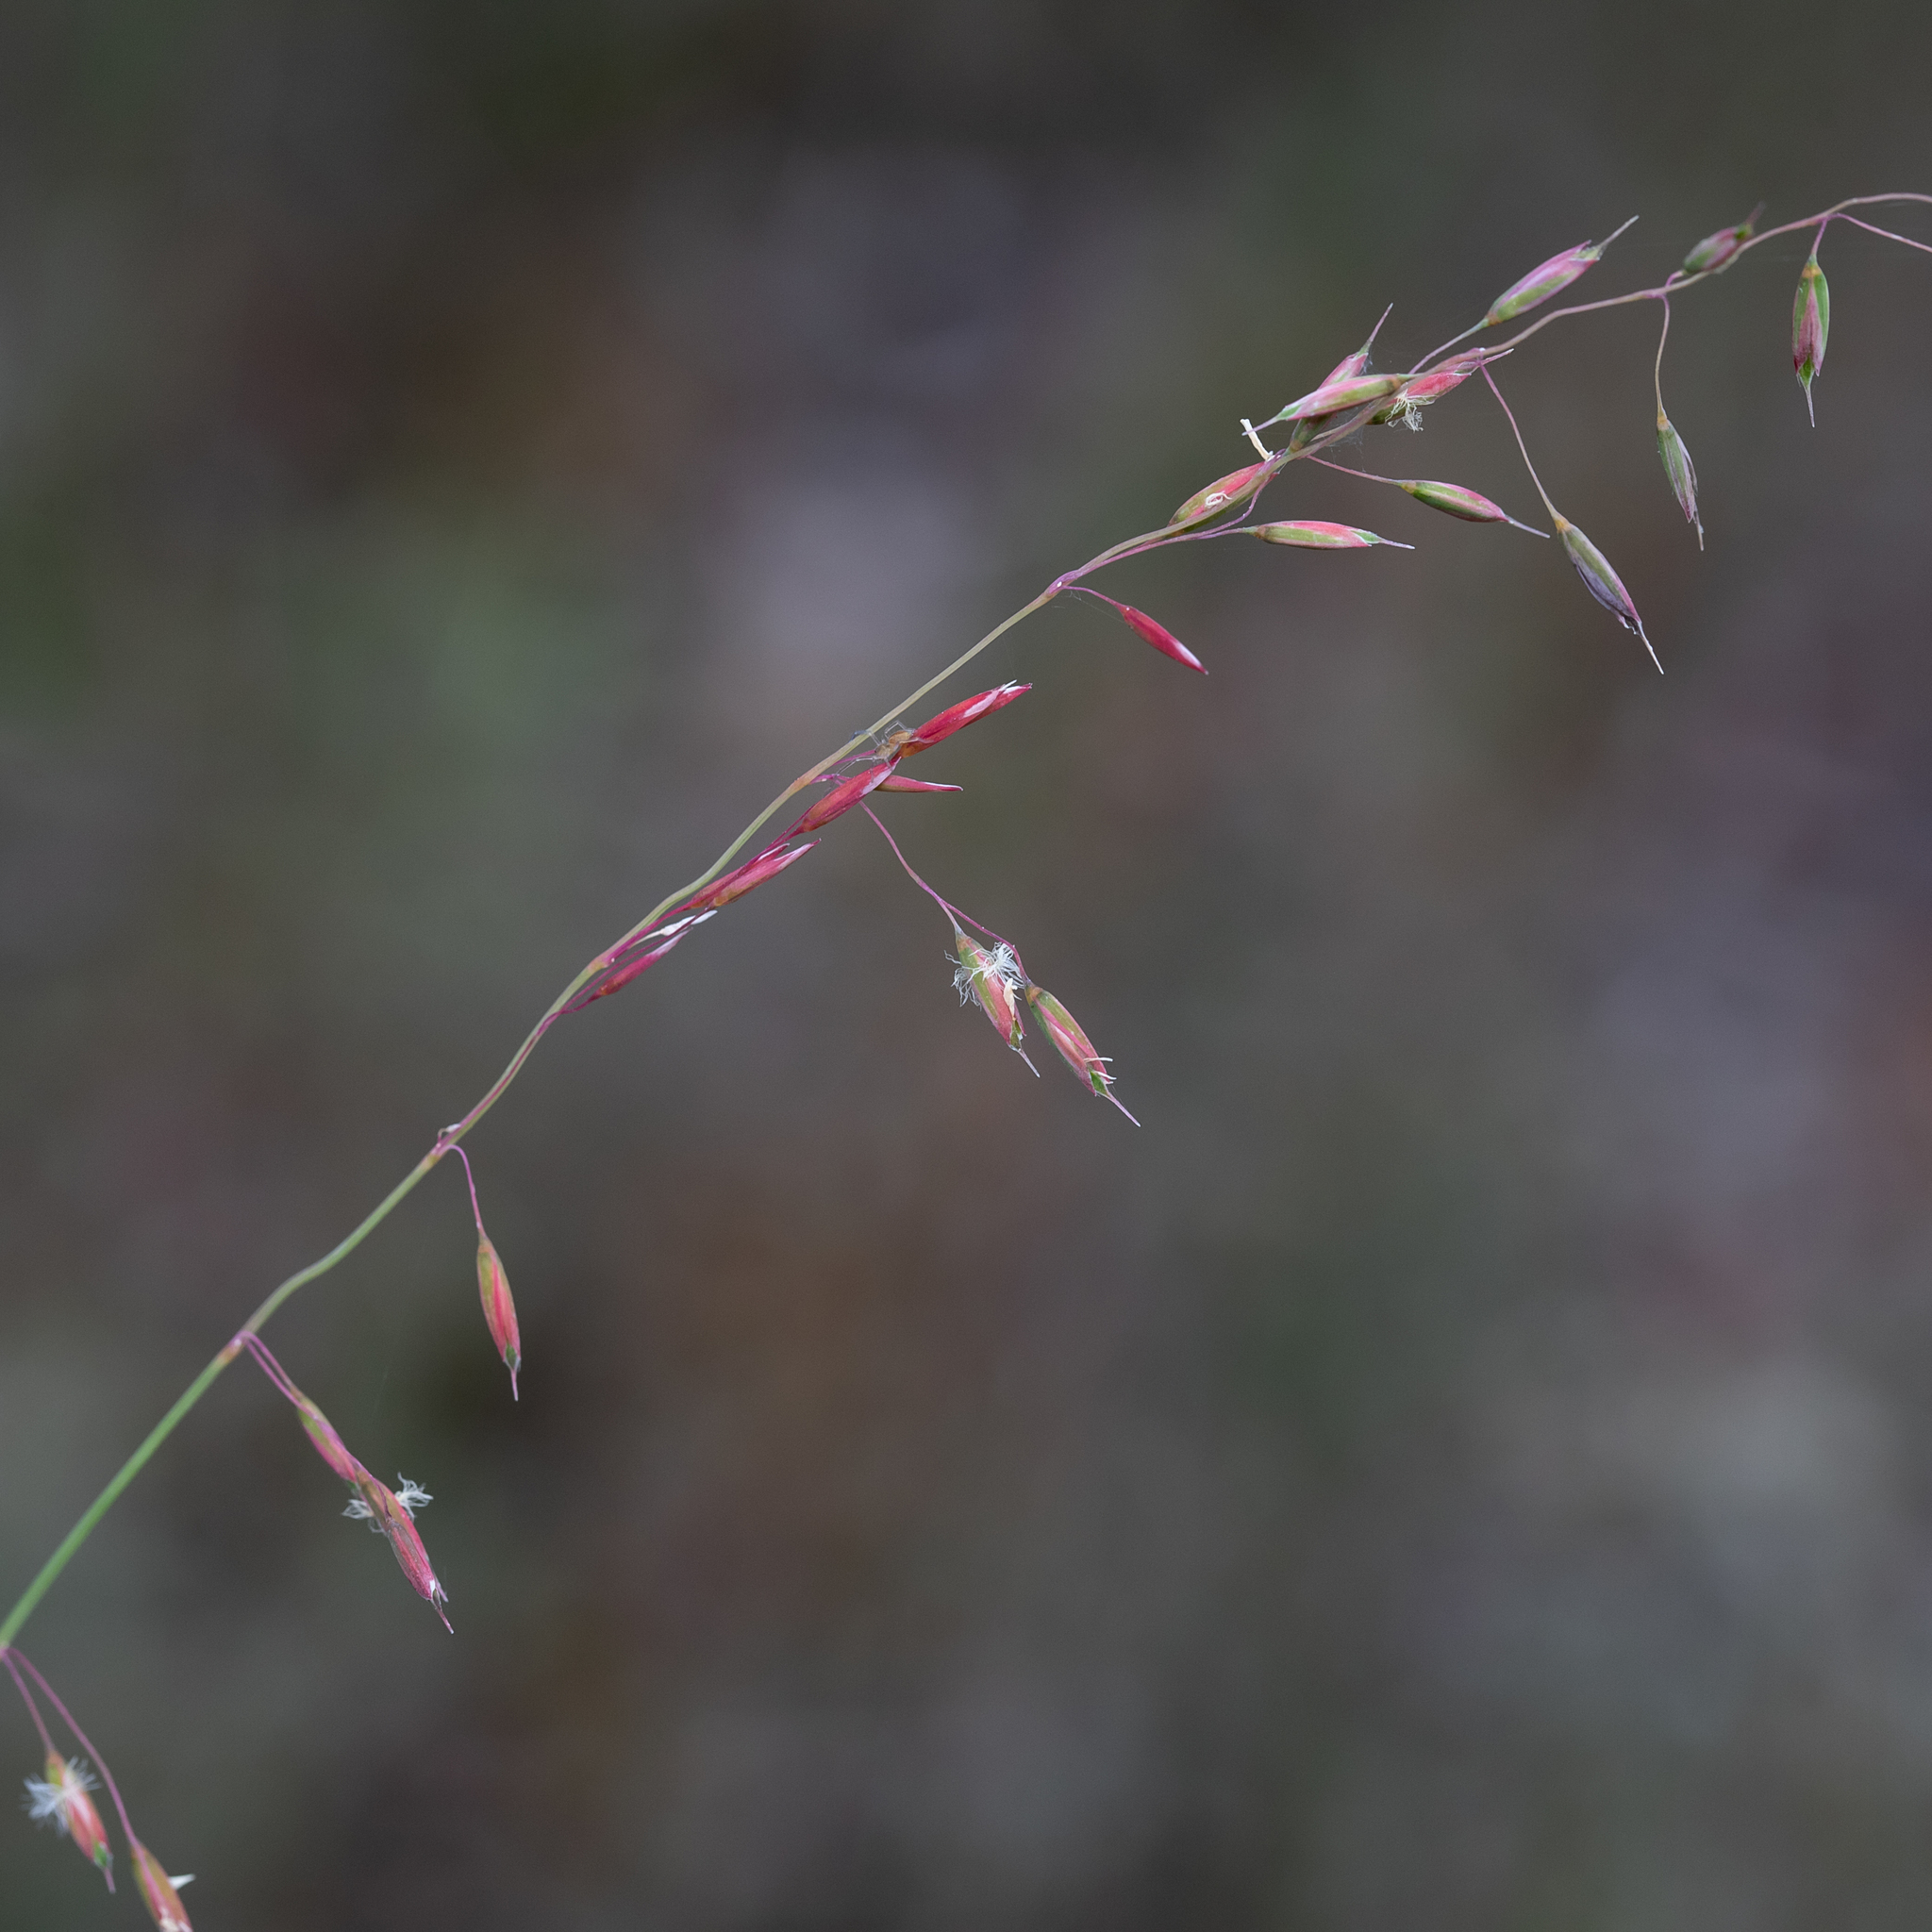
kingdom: Plantae
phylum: Tracheophyta
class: Liliopsida
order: Poales
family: Poaceae
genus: Ehrharta
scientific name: Ehrharta calycina
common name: Perennial veldtgrass
